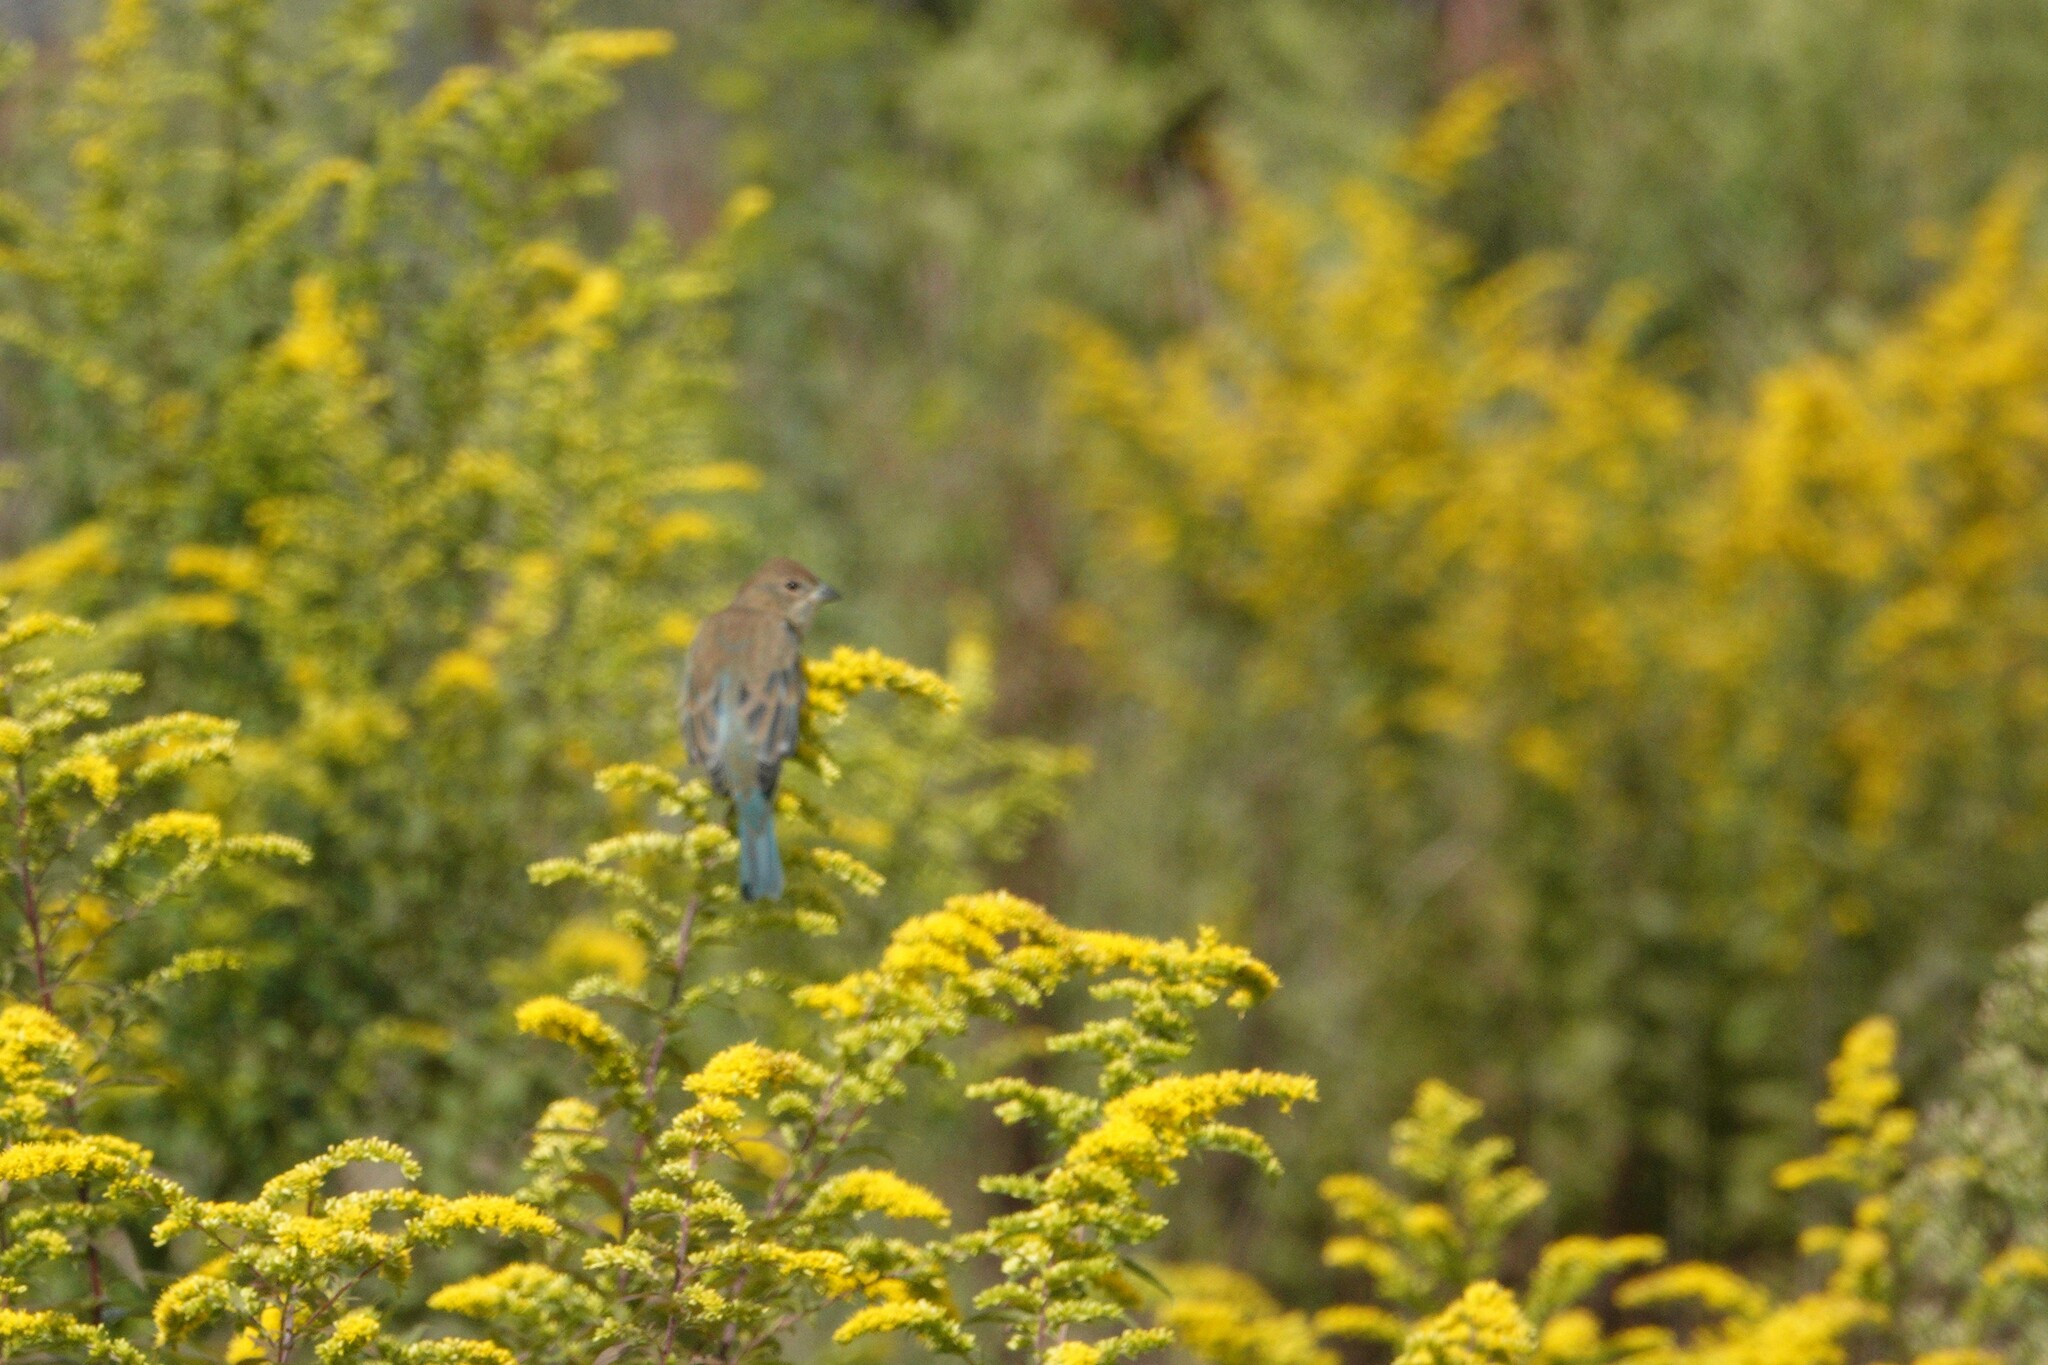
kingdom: Animalia
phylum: Chordata
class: Aves
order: Passeriformes
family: Cardinalidae
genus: Passerina
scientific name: Passerina cyanea
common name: Indigo bunting
